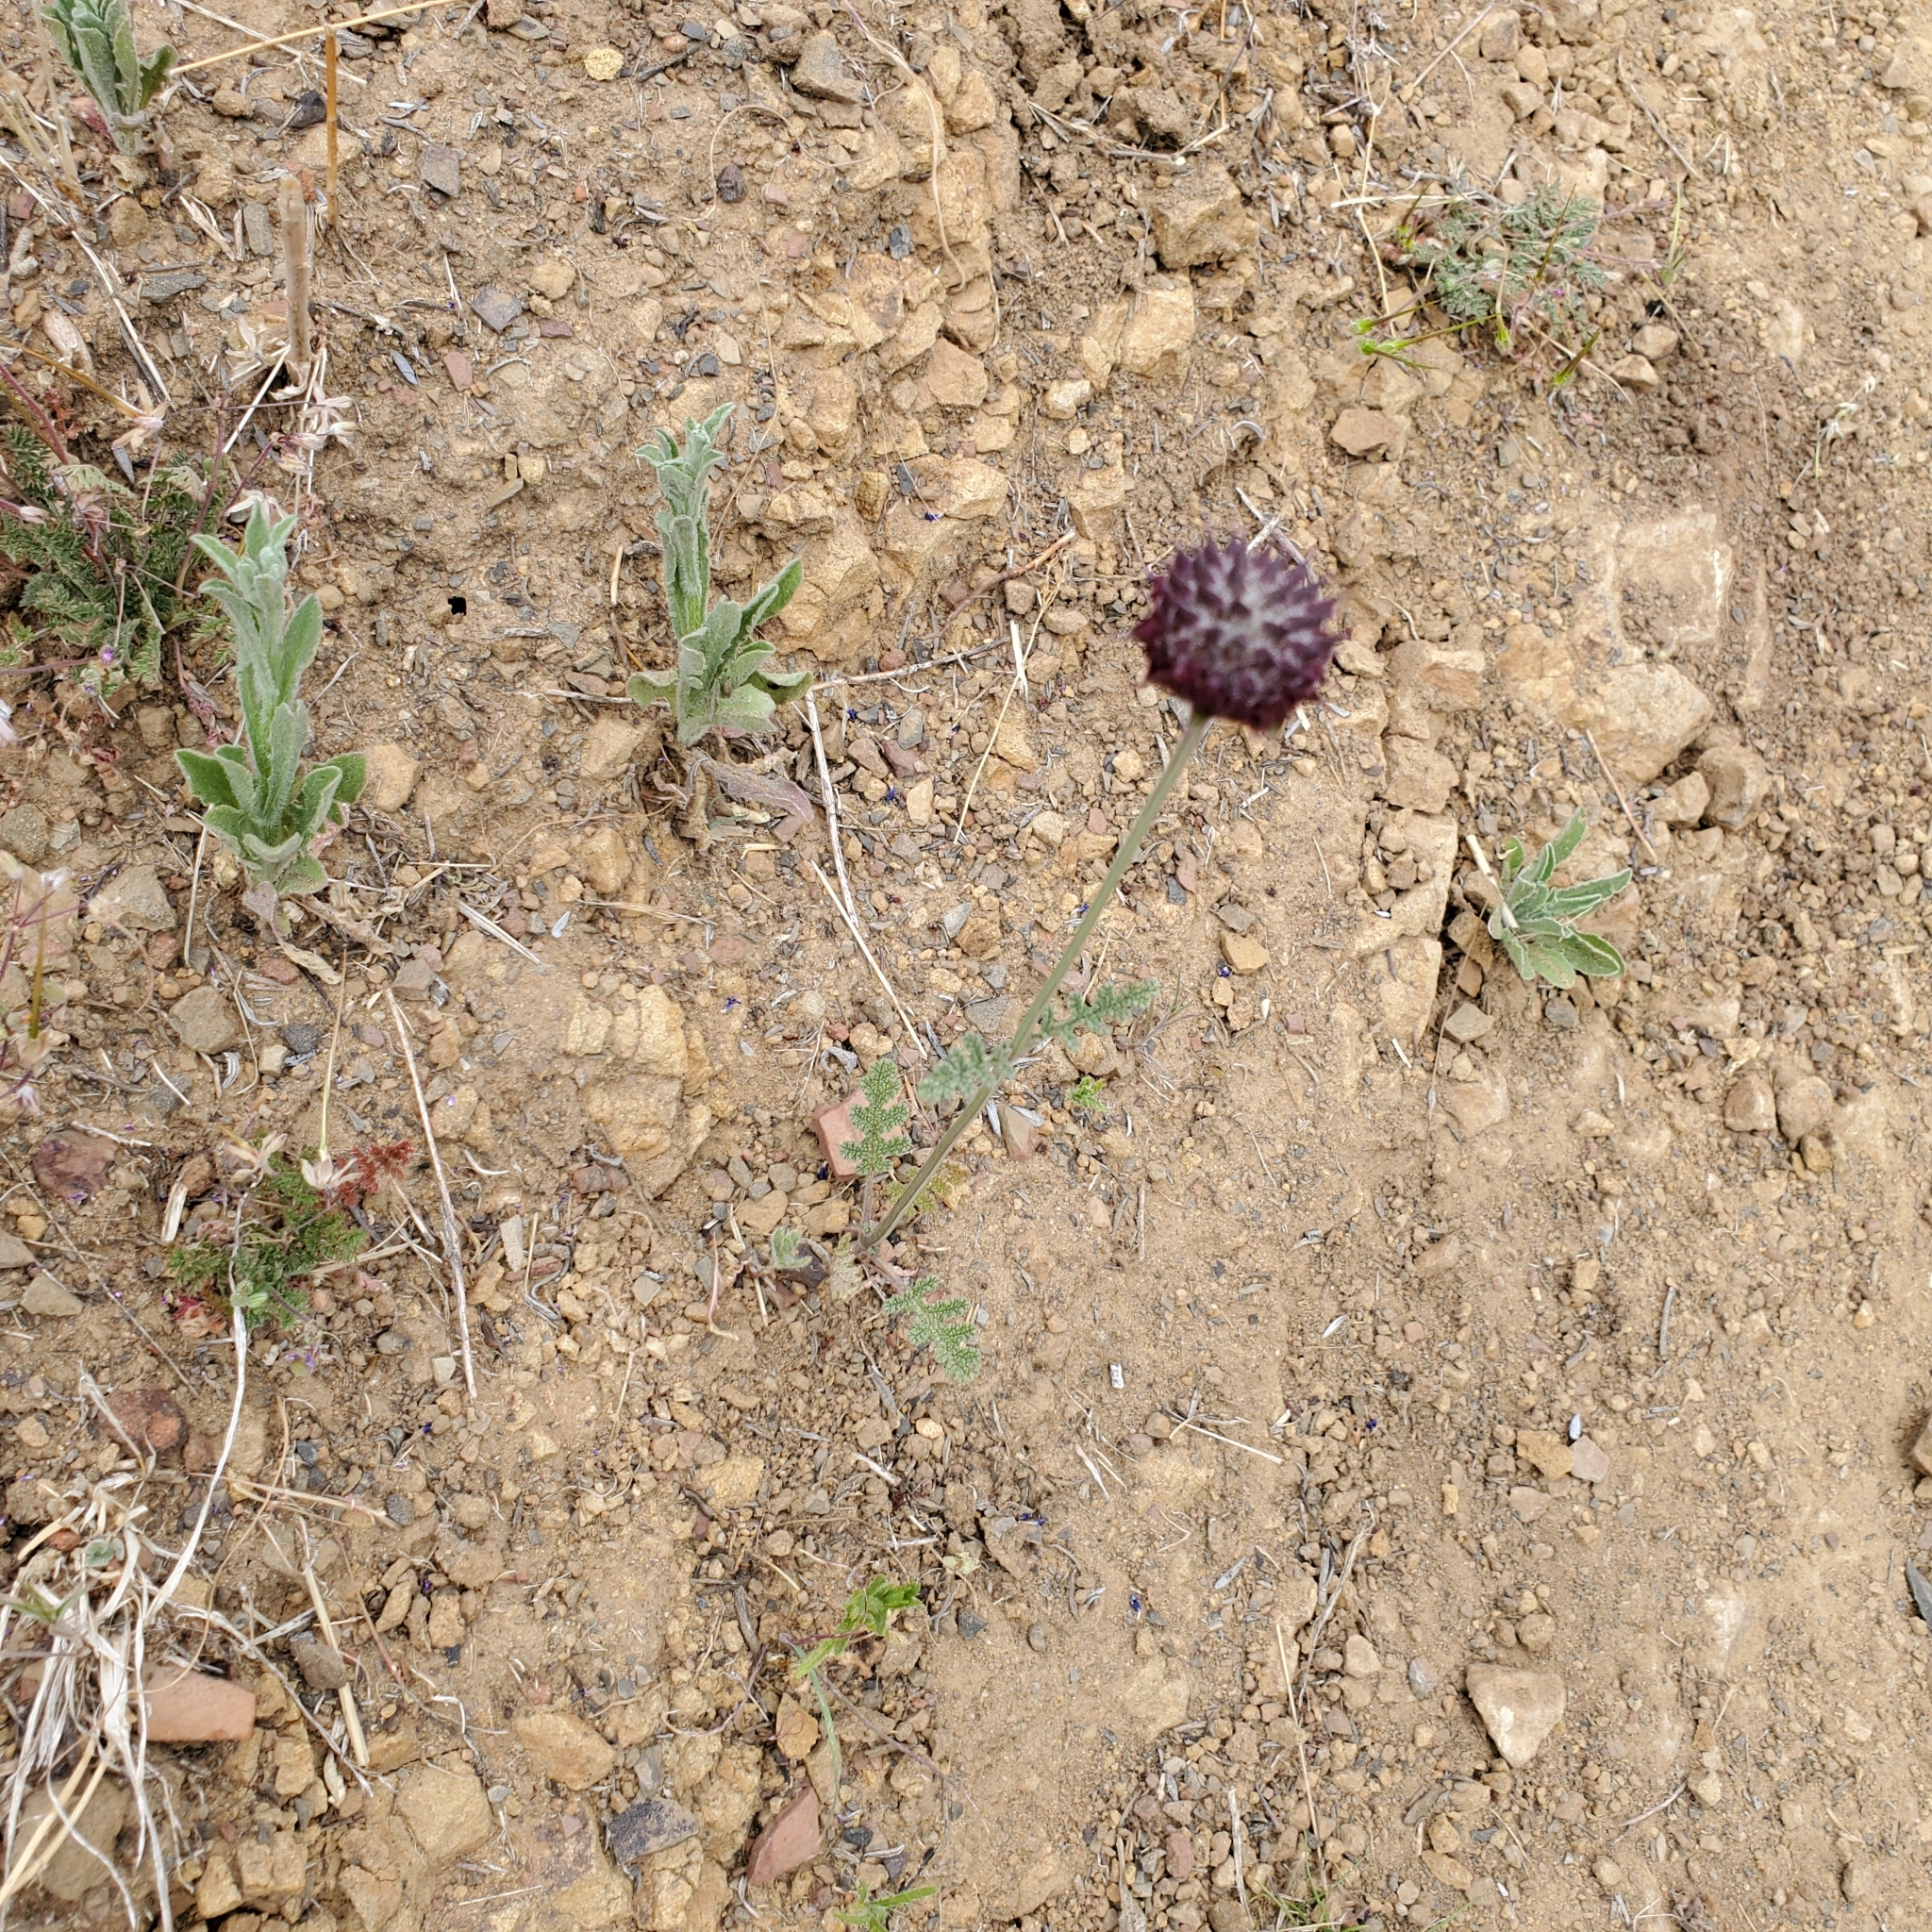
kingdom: Plantae
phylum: Tracheophyta
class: Magnoliopsida
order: Lamiales
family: Lamiaceae
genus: Salvia
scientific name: Salvia columbariae
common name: Chia
